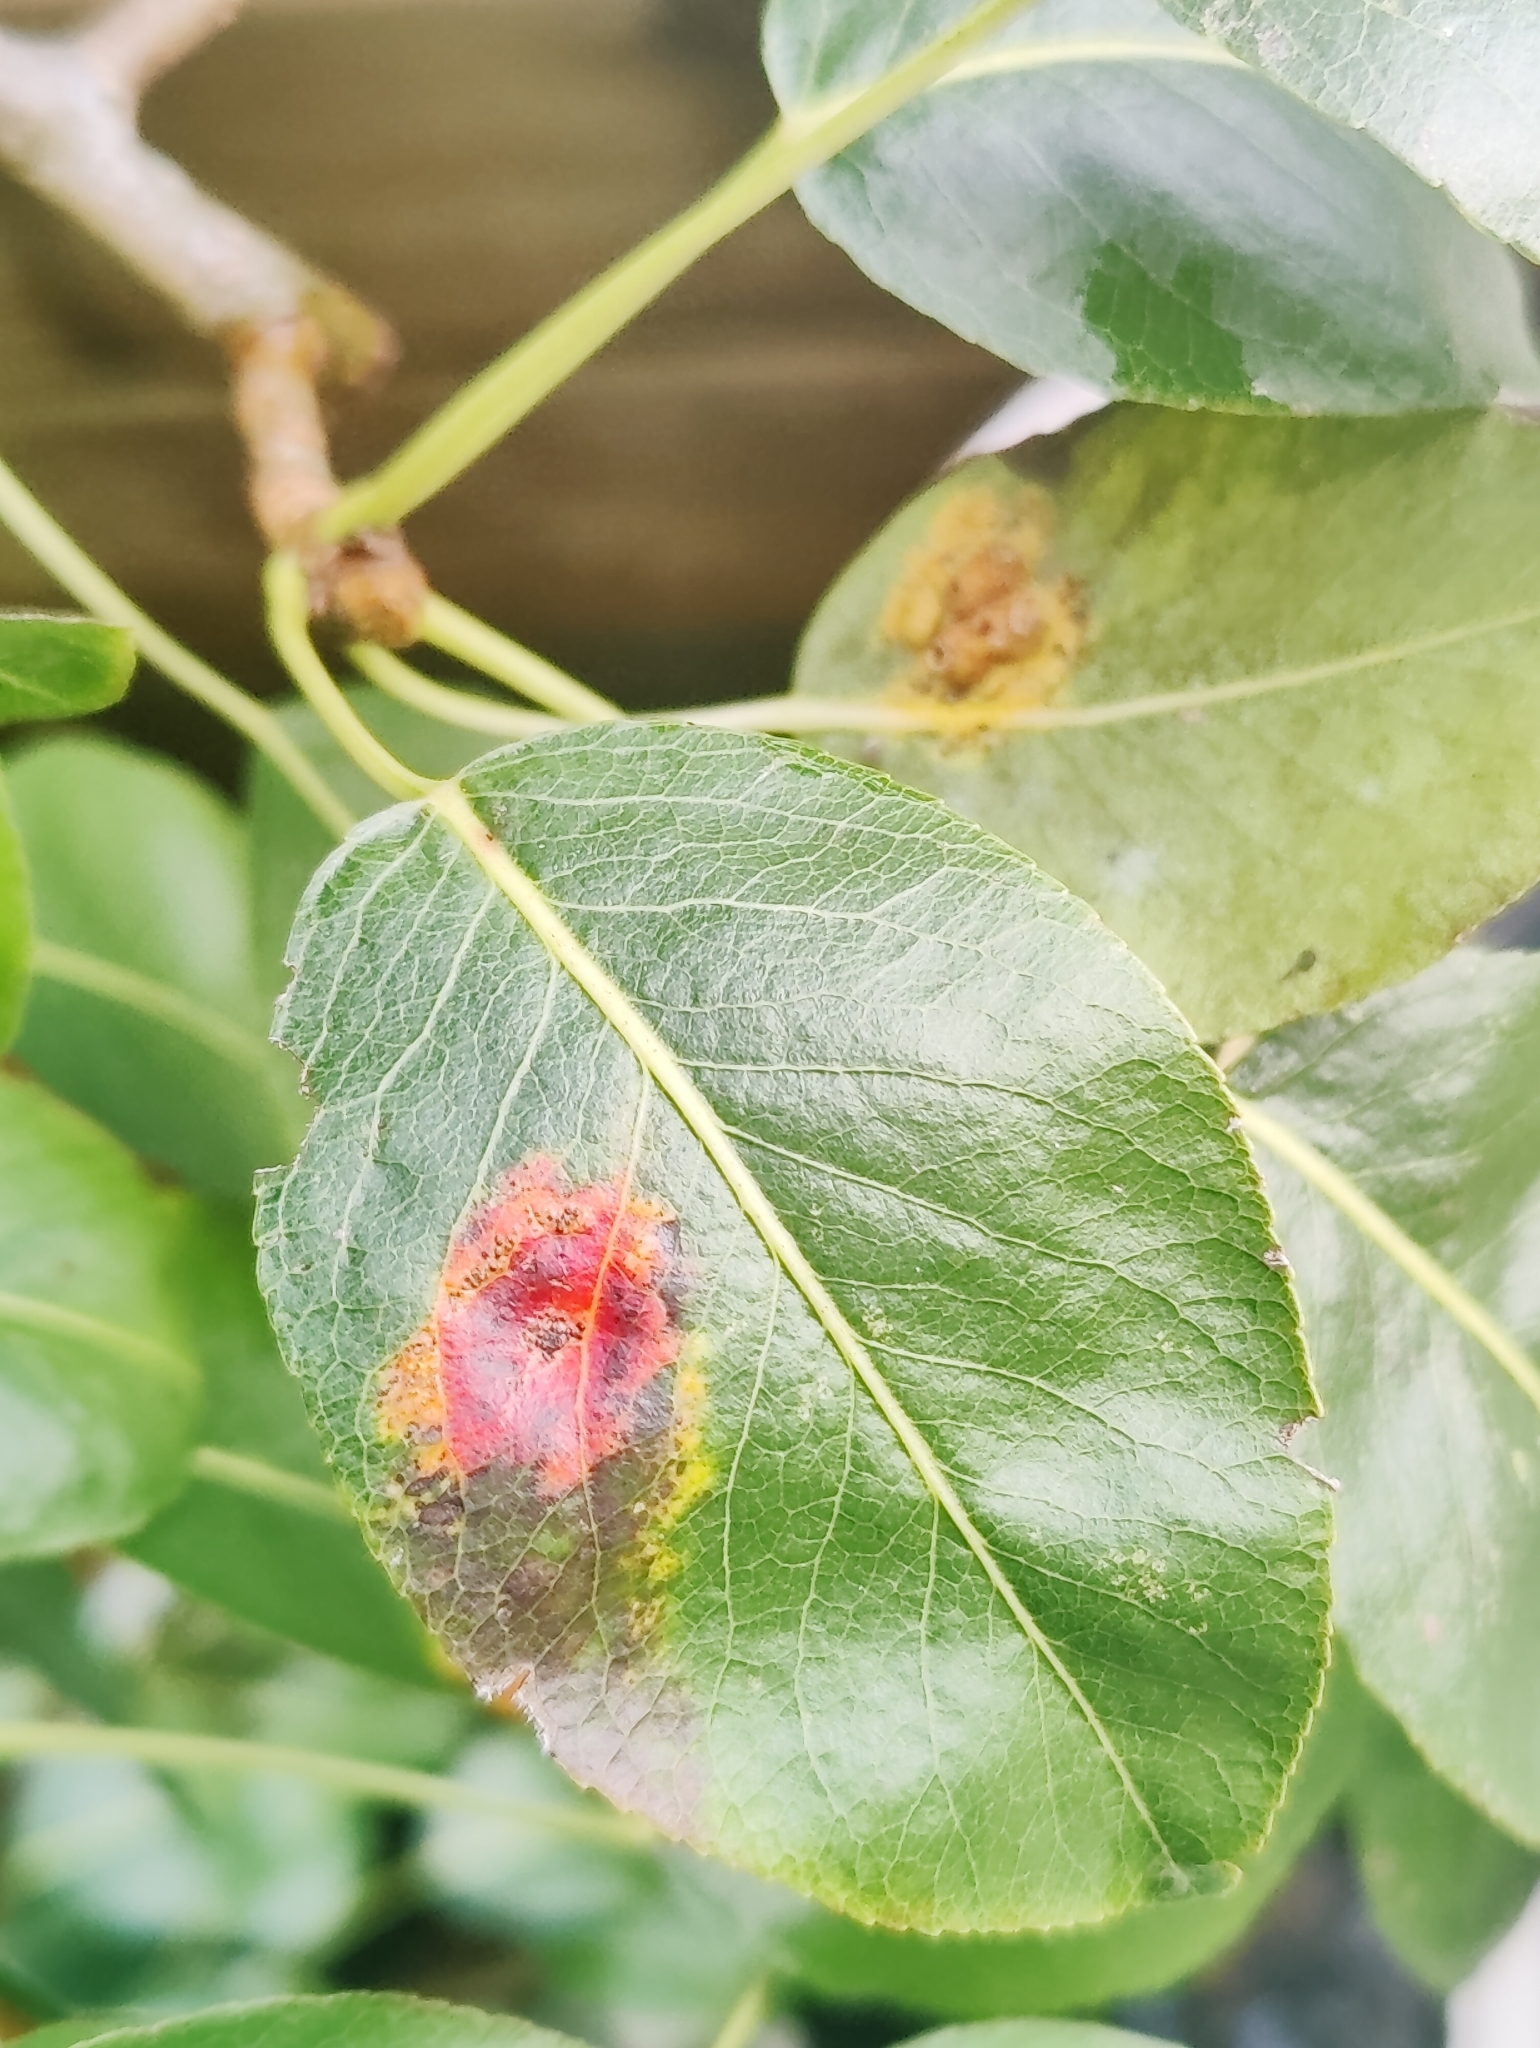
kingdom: Fungi
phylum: Basidiomycota
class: Pucciniomycetes
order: Pucciniales
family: Gymnosporangiaceae
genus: Gymnosporangium
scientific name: Gymnosporangium sabinae
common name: Pear trellis rust fungus
